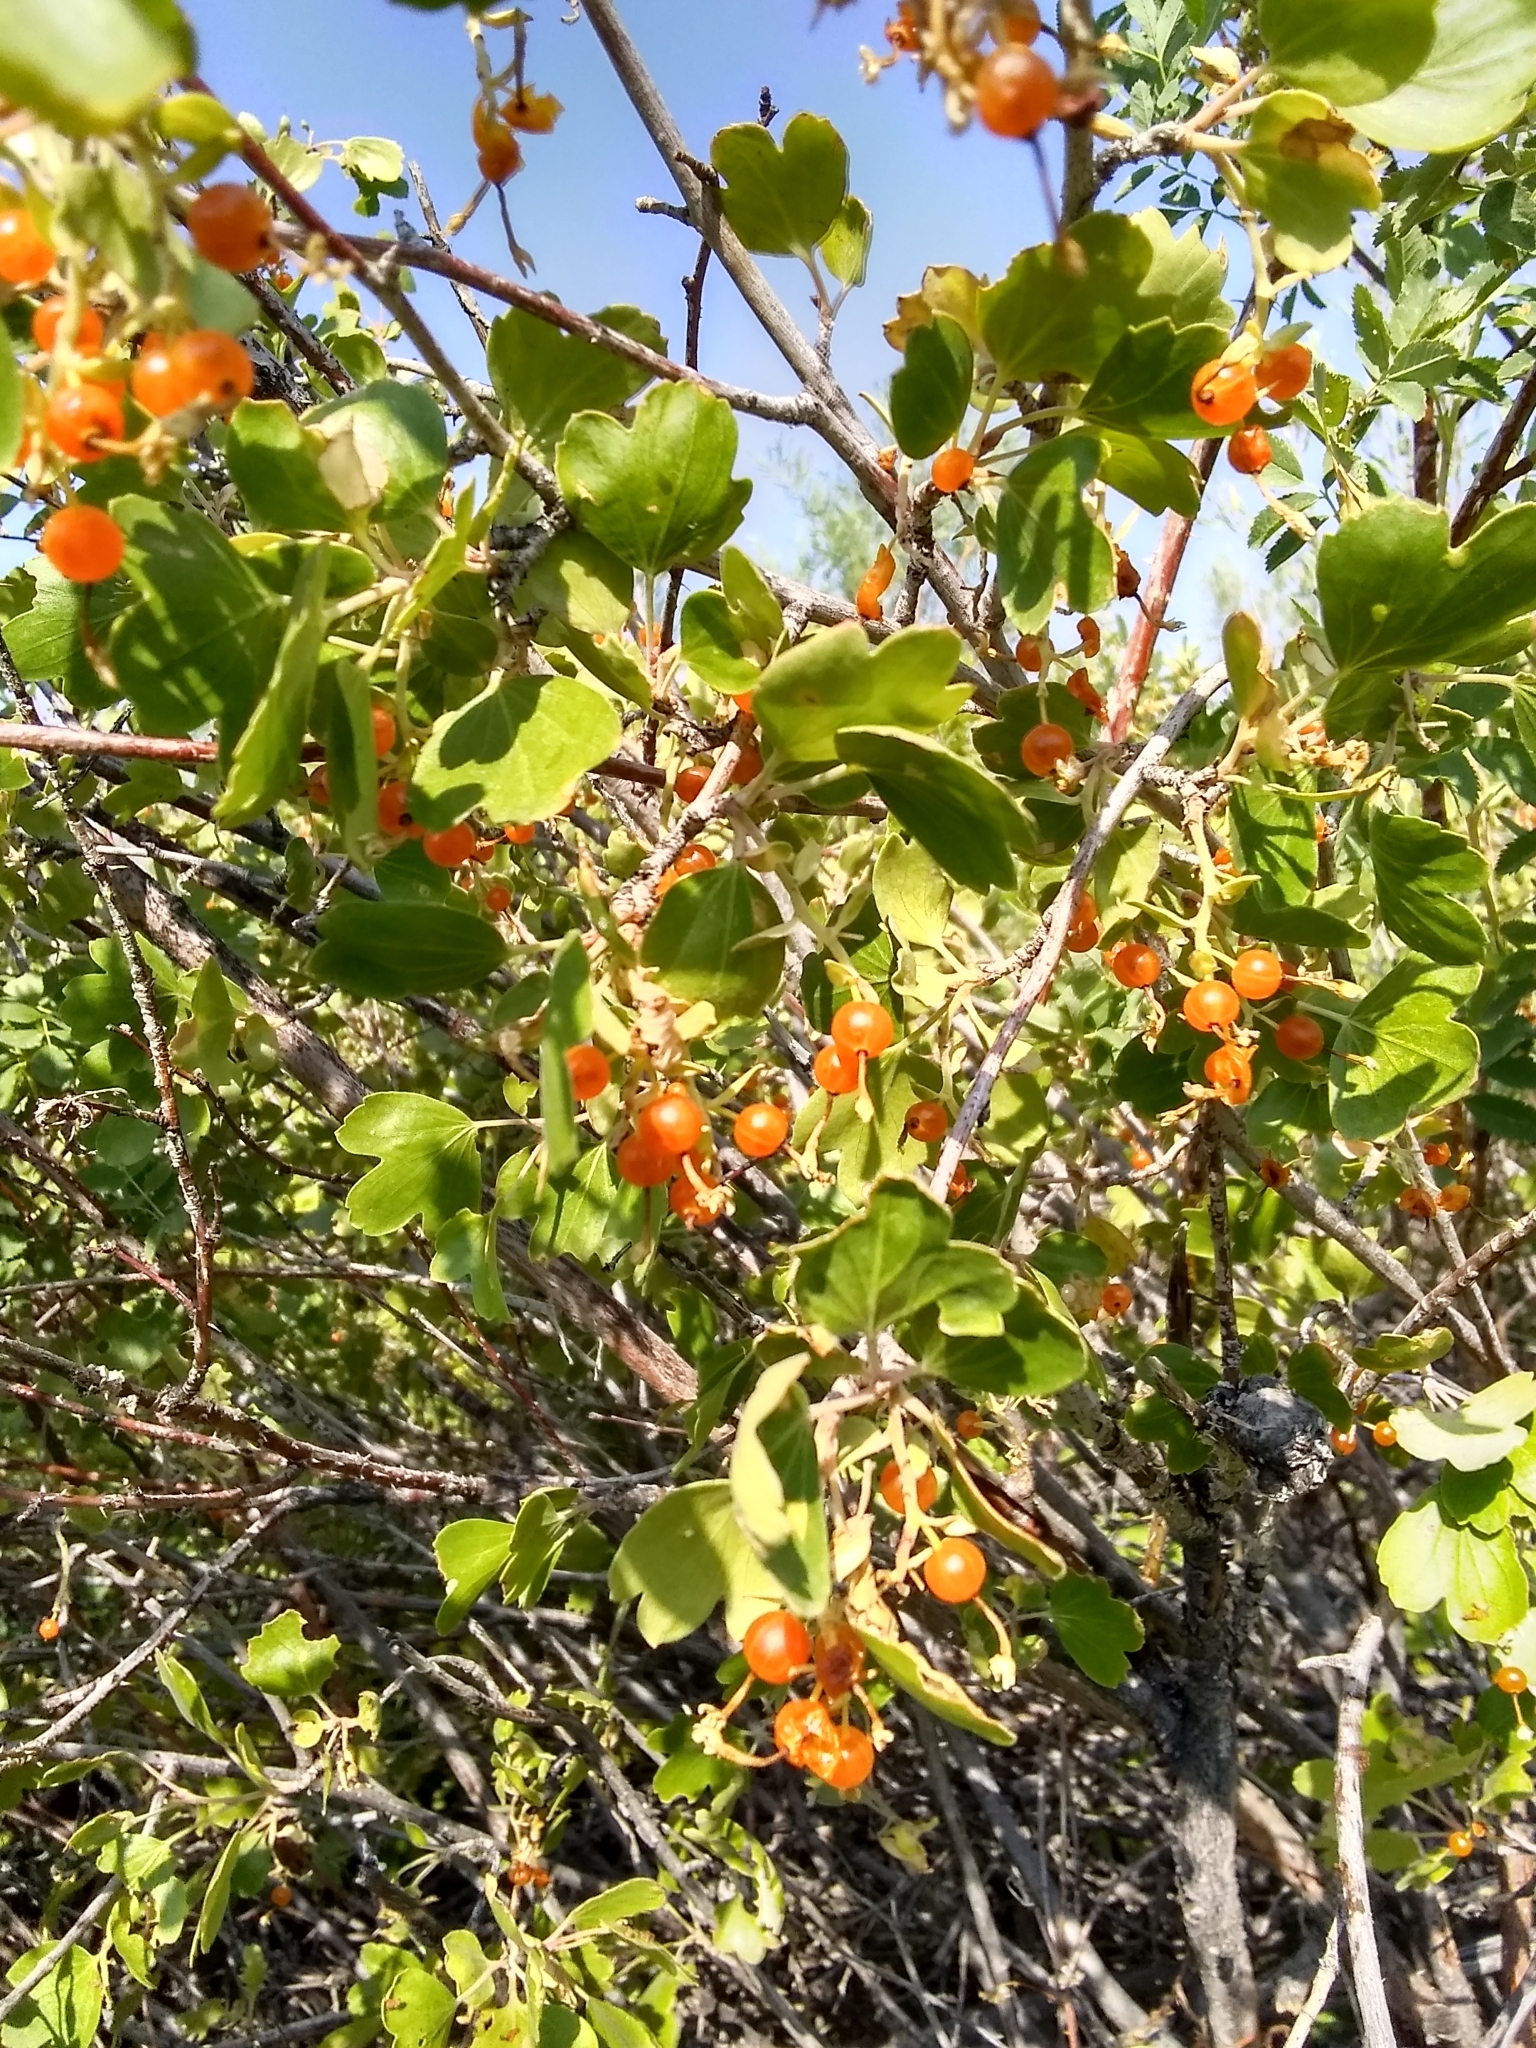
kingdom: Plantae
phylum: Tracheophyta
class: Magnoliopsida
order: Saxifragales
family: Grossulariaceae
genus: Ribes
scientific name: Ribes aureum
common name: Golden currant
